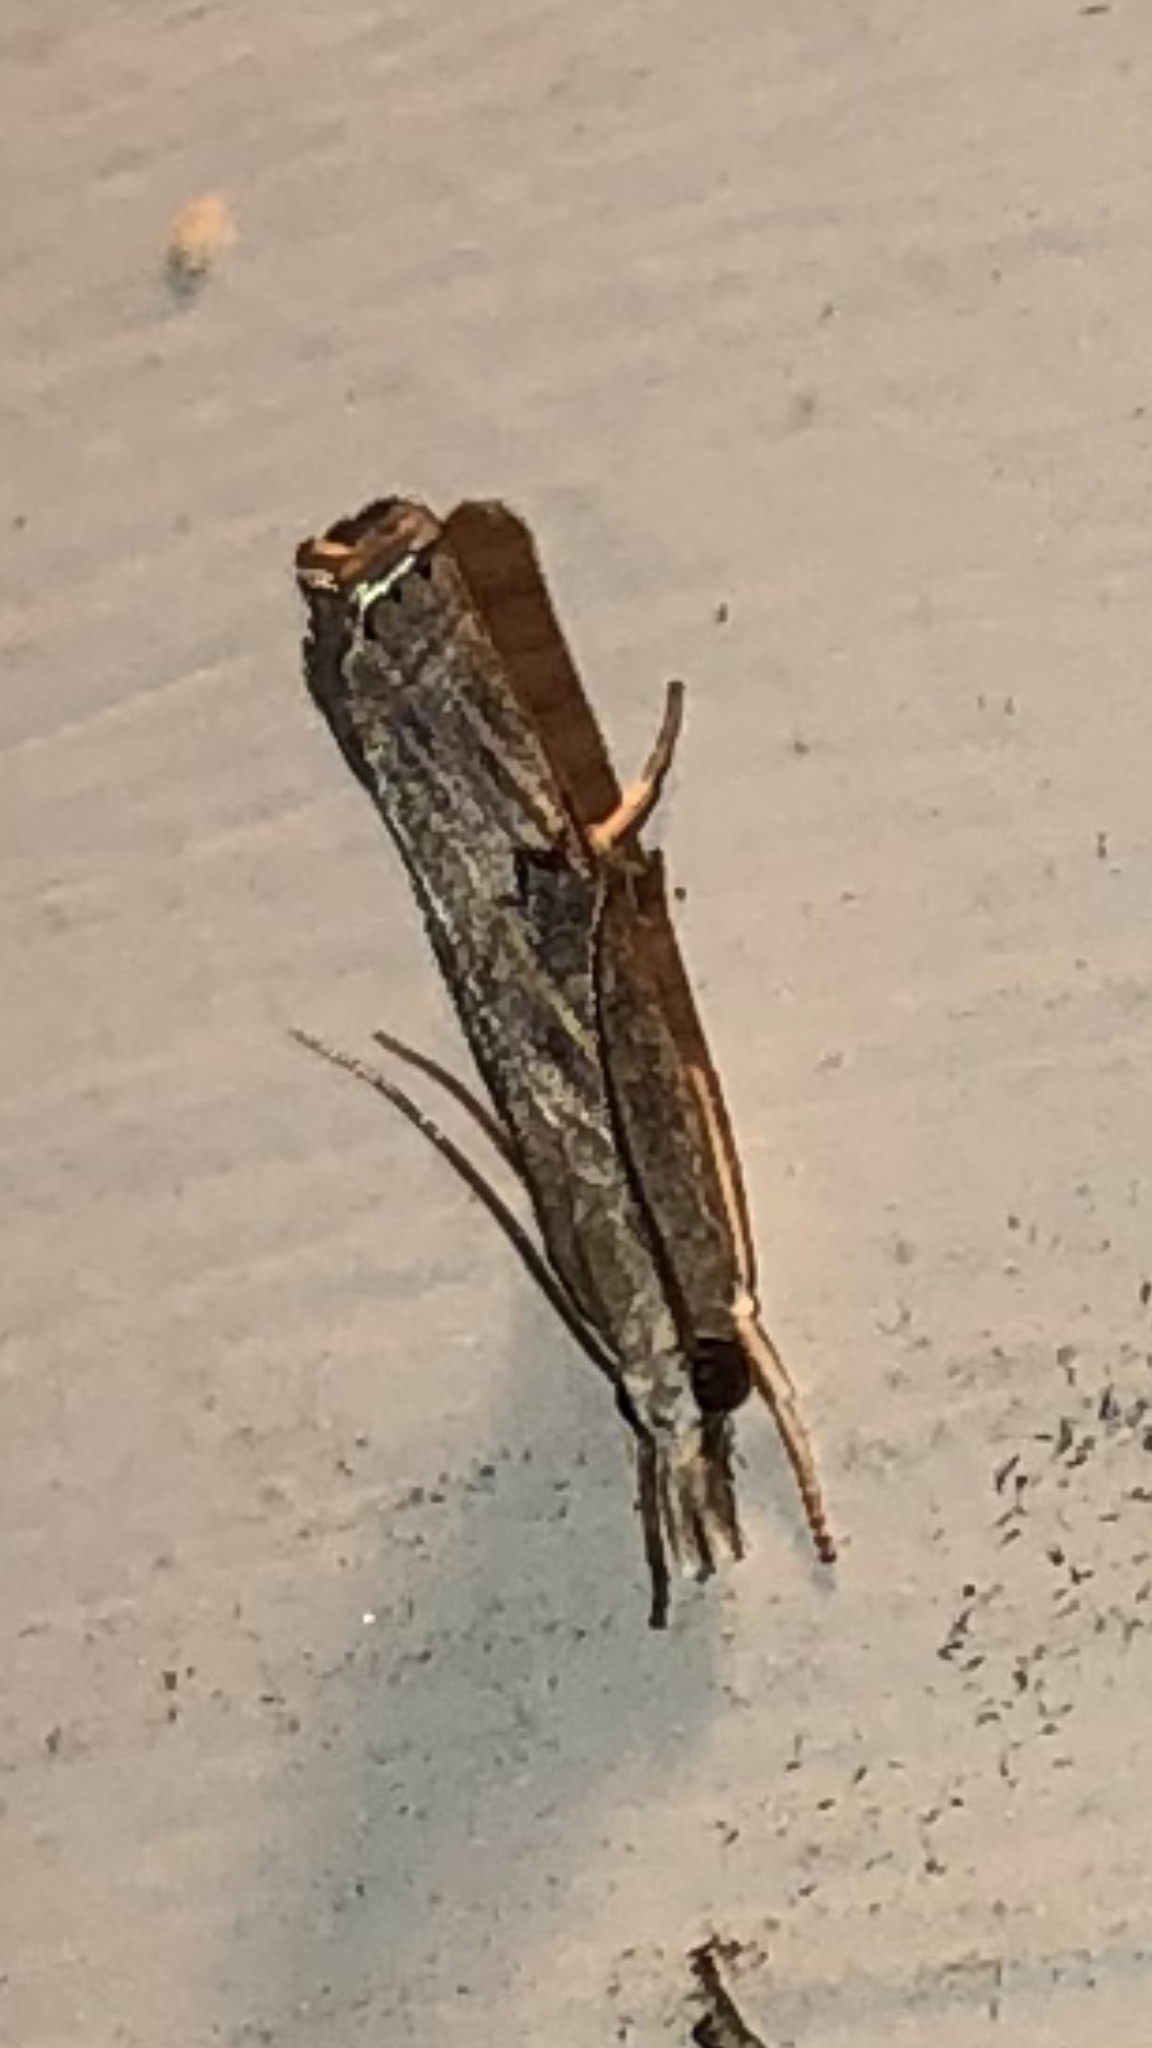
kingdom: Animalia
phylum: Arthropoda
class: Insecta
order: Lepidoptera
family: Crambidae
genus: Parapediasia
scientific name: Parapediasia teterellus
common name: Bluegrass webworm moth
